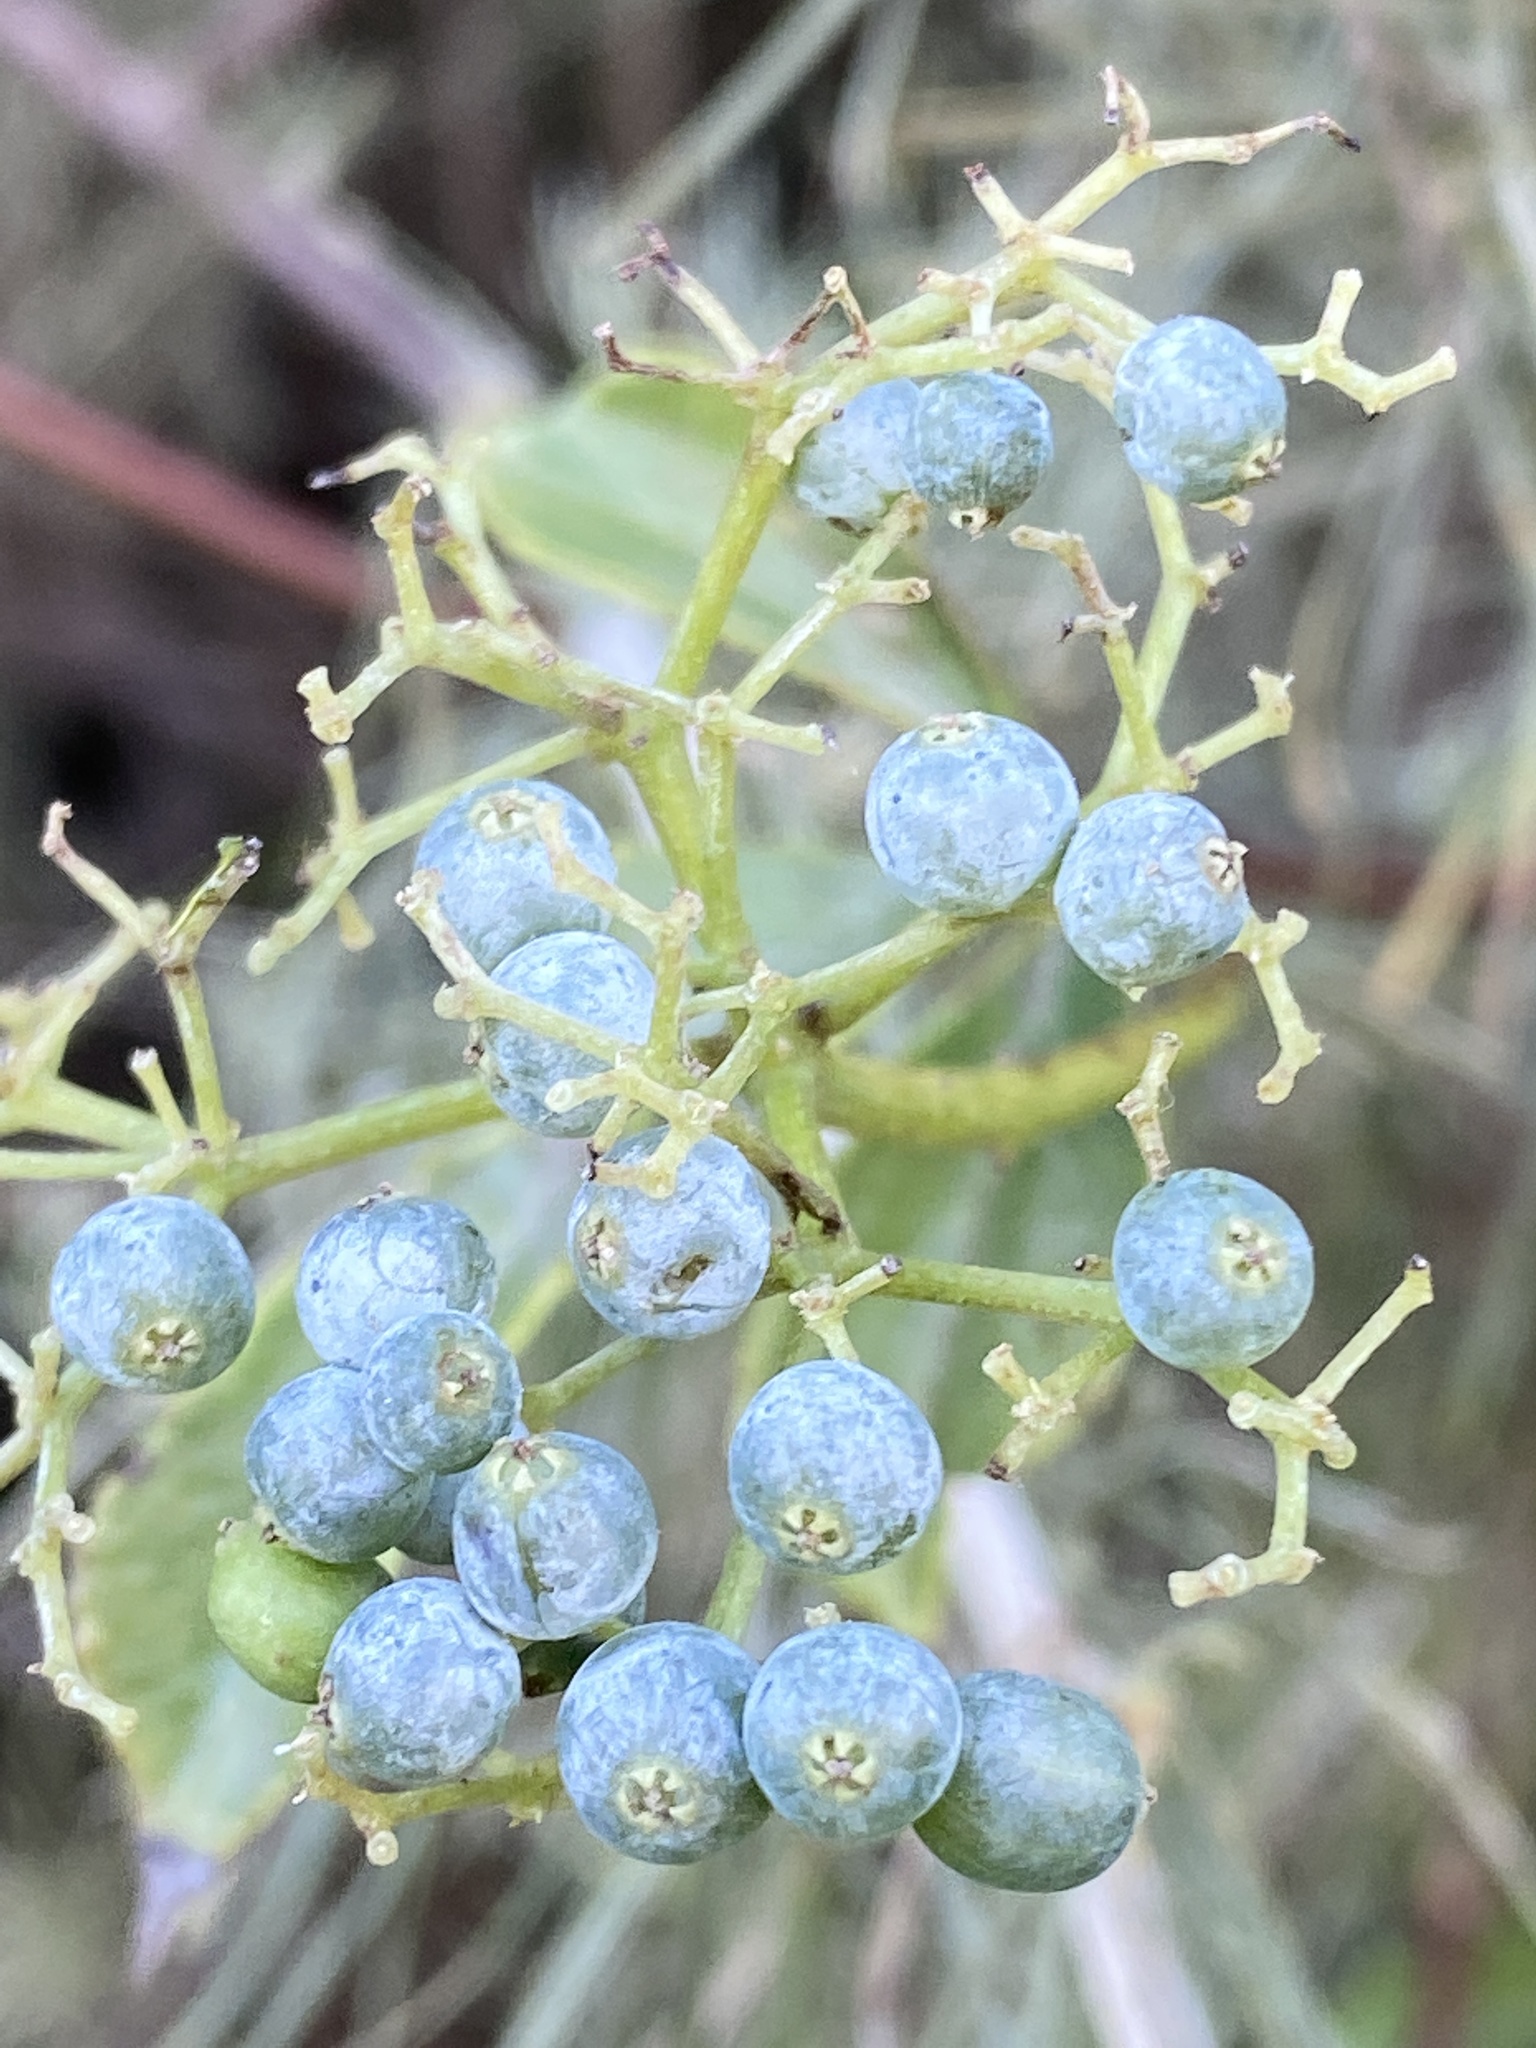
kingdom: Plantae
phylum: Tracheophyta
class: Magnoliopsida
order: Dipsacales
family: Viburnaceae
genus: Sambucus
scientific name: Sambucus cerulea
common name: Blue elder
